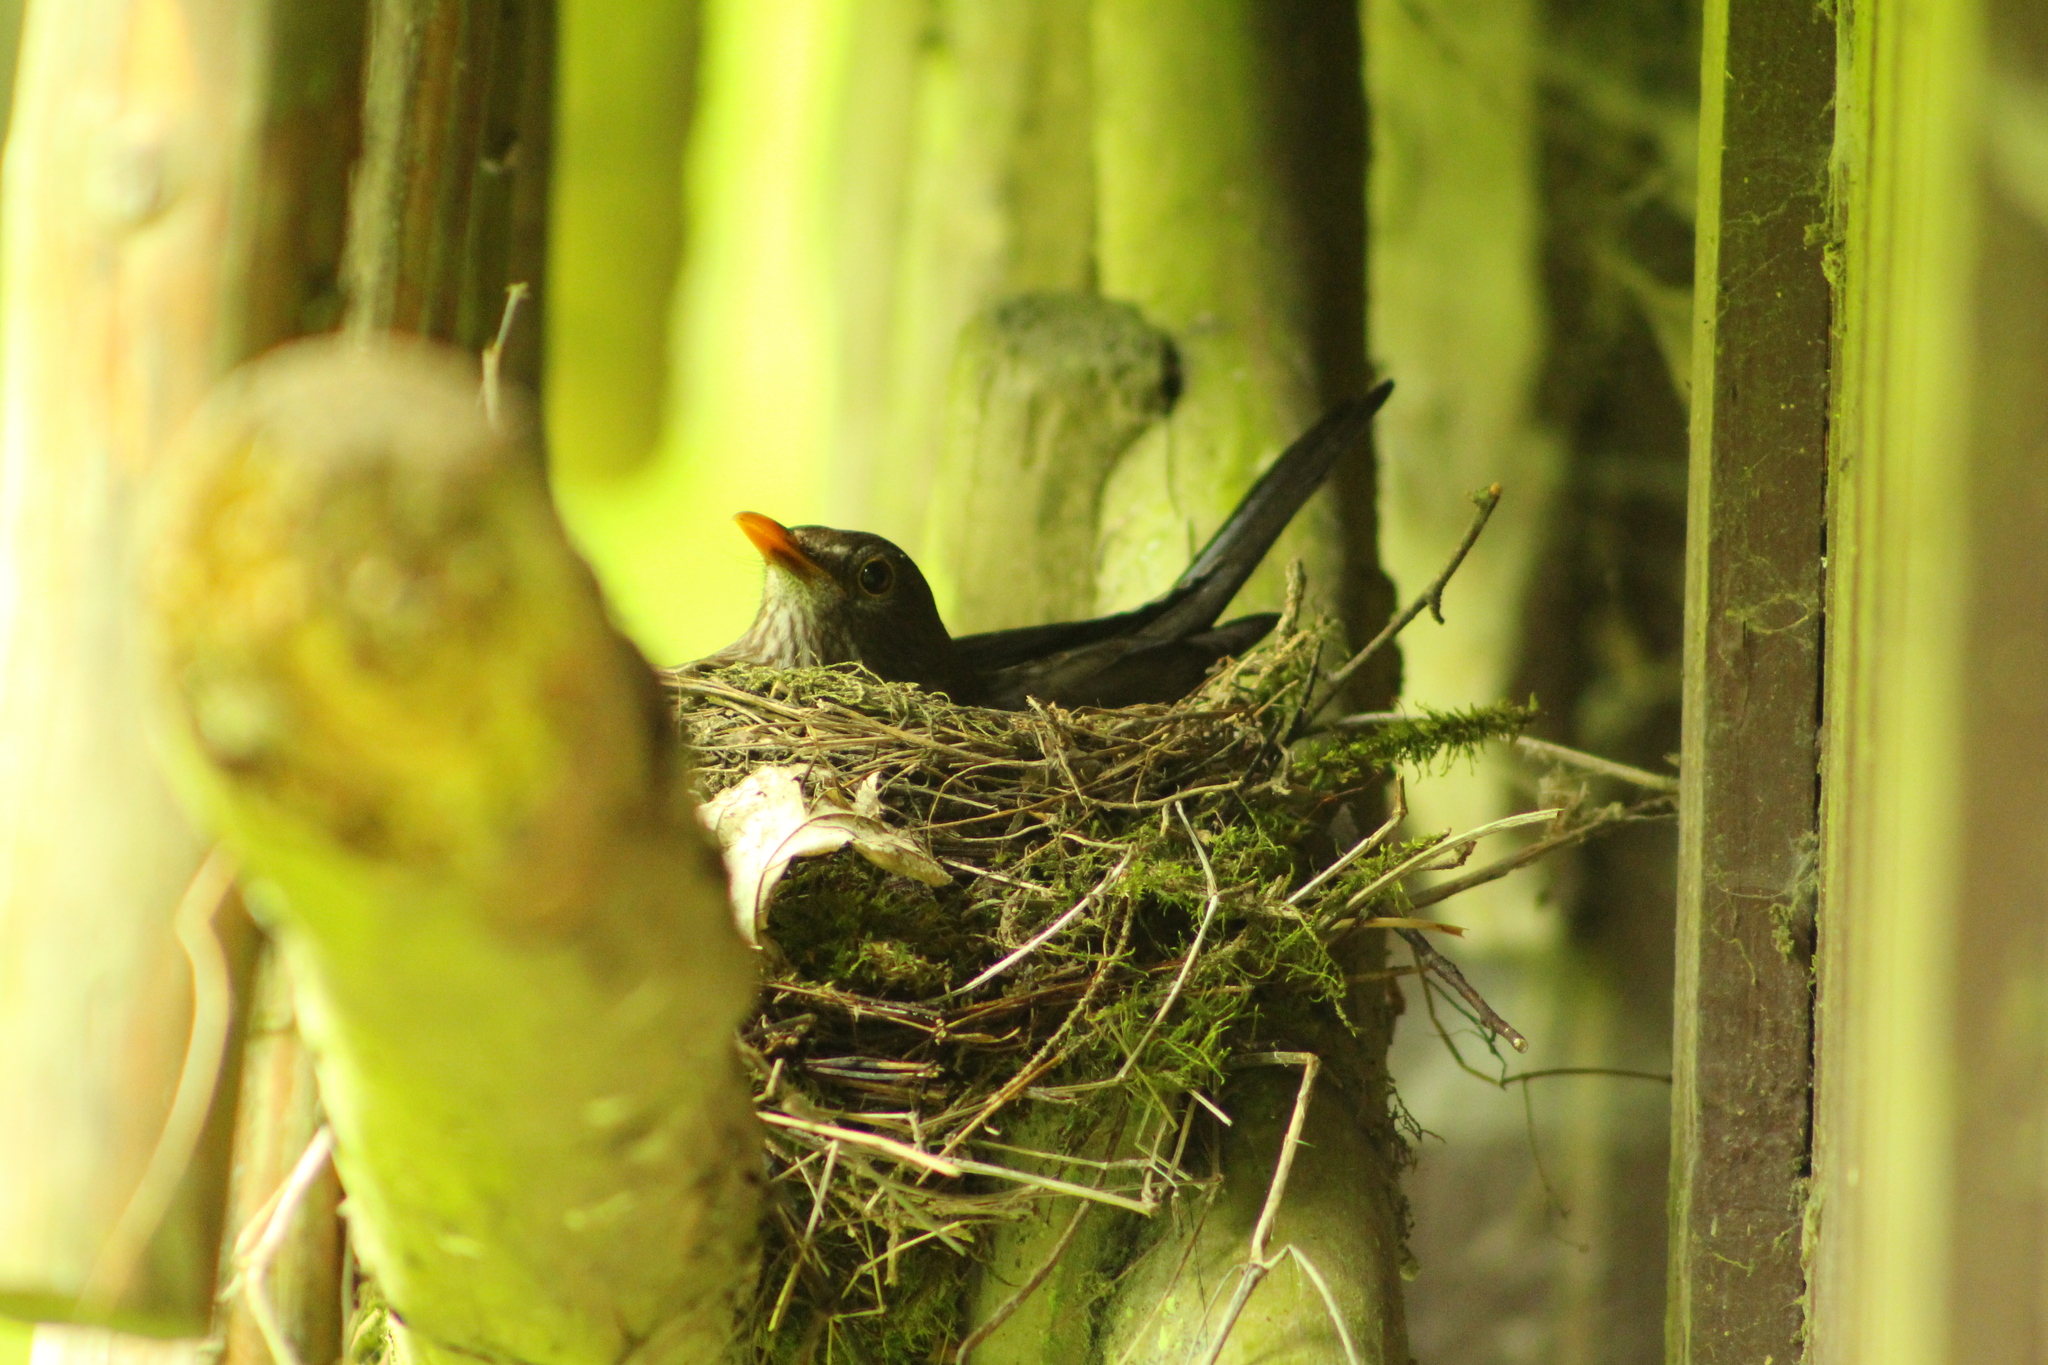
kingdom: Animalia
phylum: Chordata
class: Aves
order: Passeriformes
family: Turdidae
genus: Turdus
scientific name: Turdus merula
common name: Common blackbird
